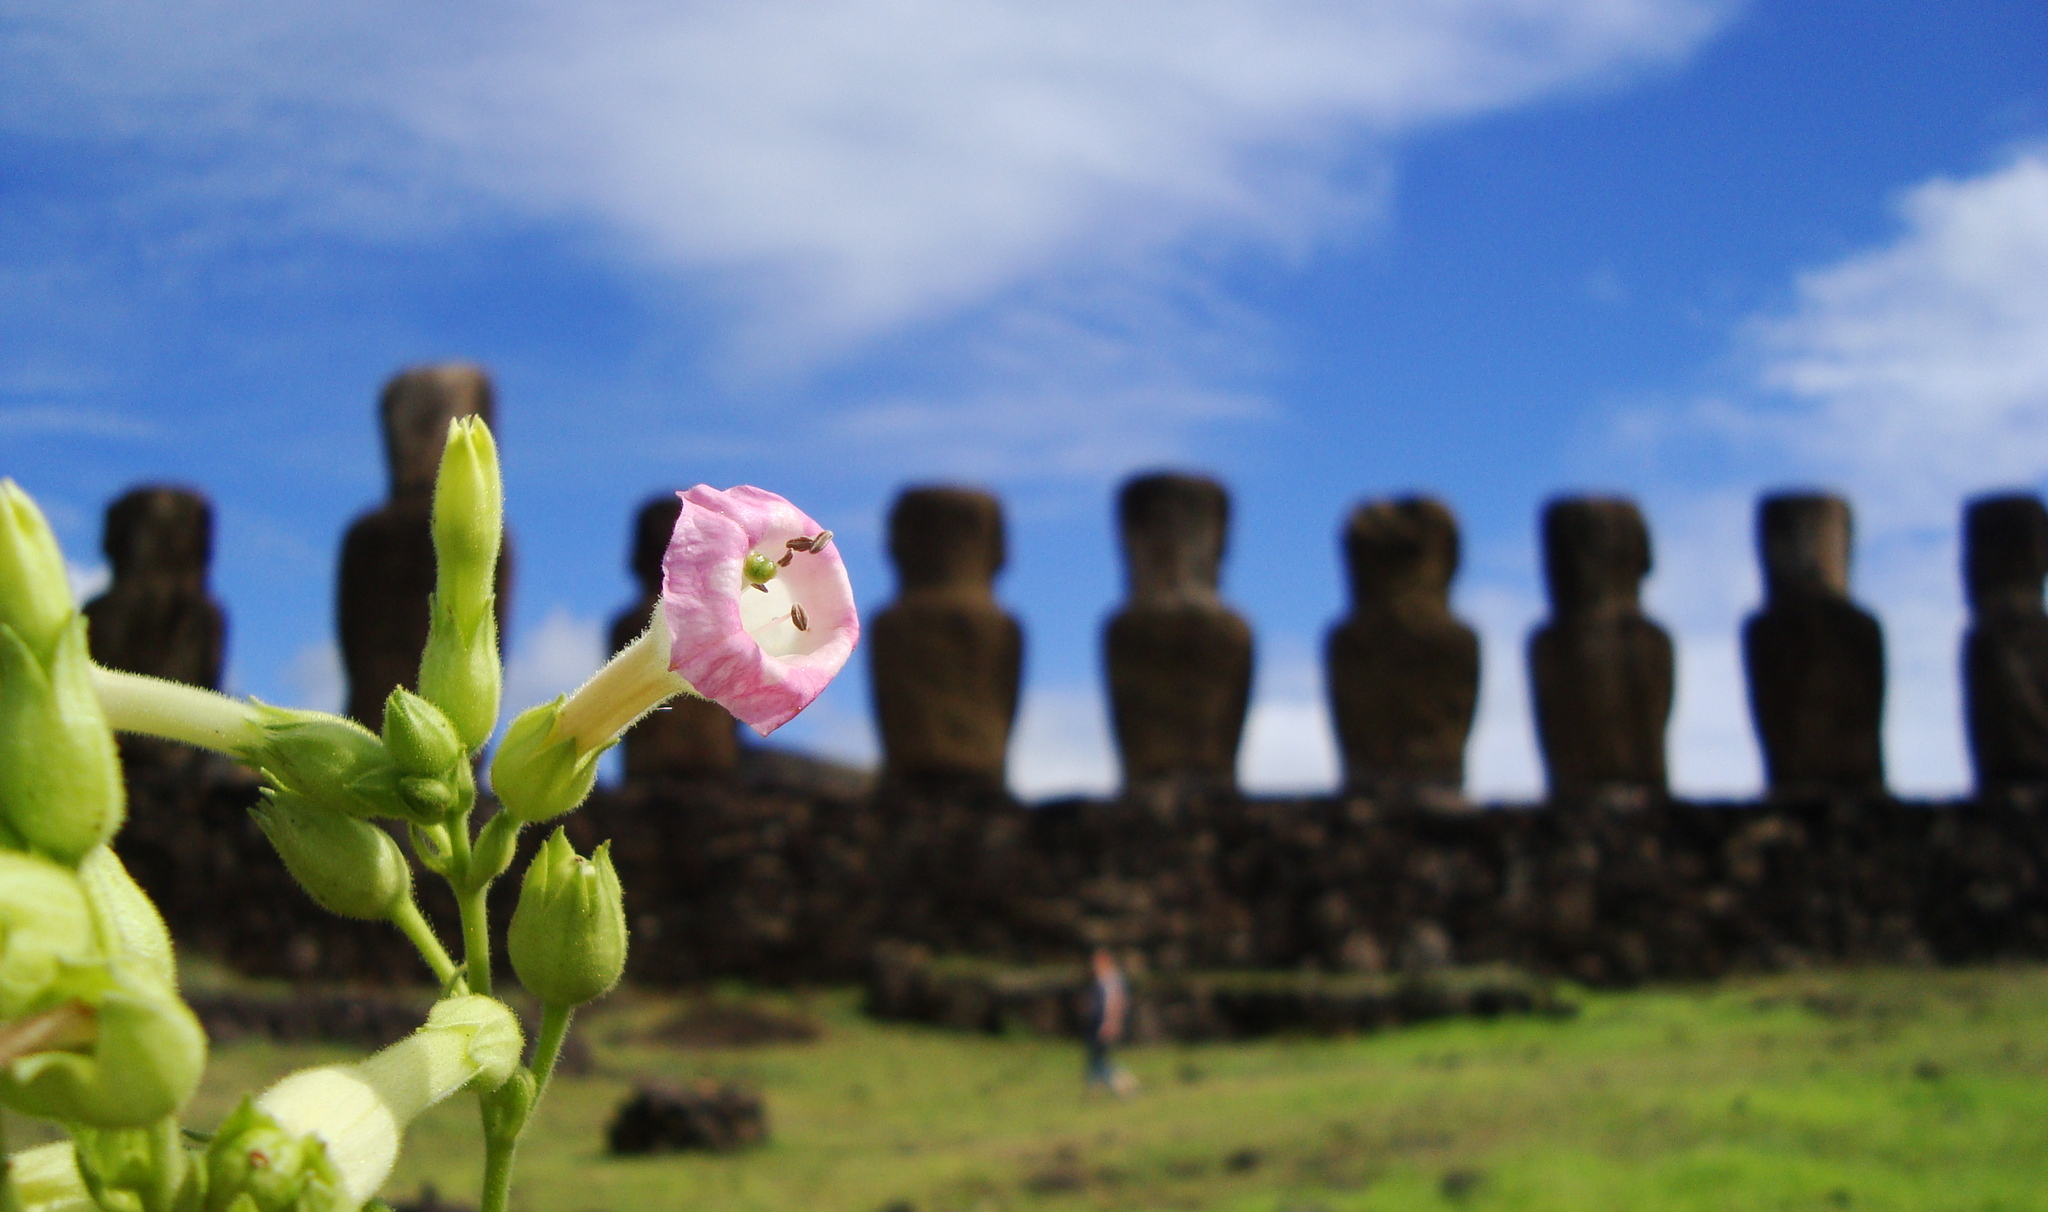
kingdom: Plantae
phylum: Tracheophyta
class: Magnoliopsida
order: Solanales
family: Solanaceae
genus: Nicotiana
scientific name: Nicotiana tabacum
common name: Tobacco
